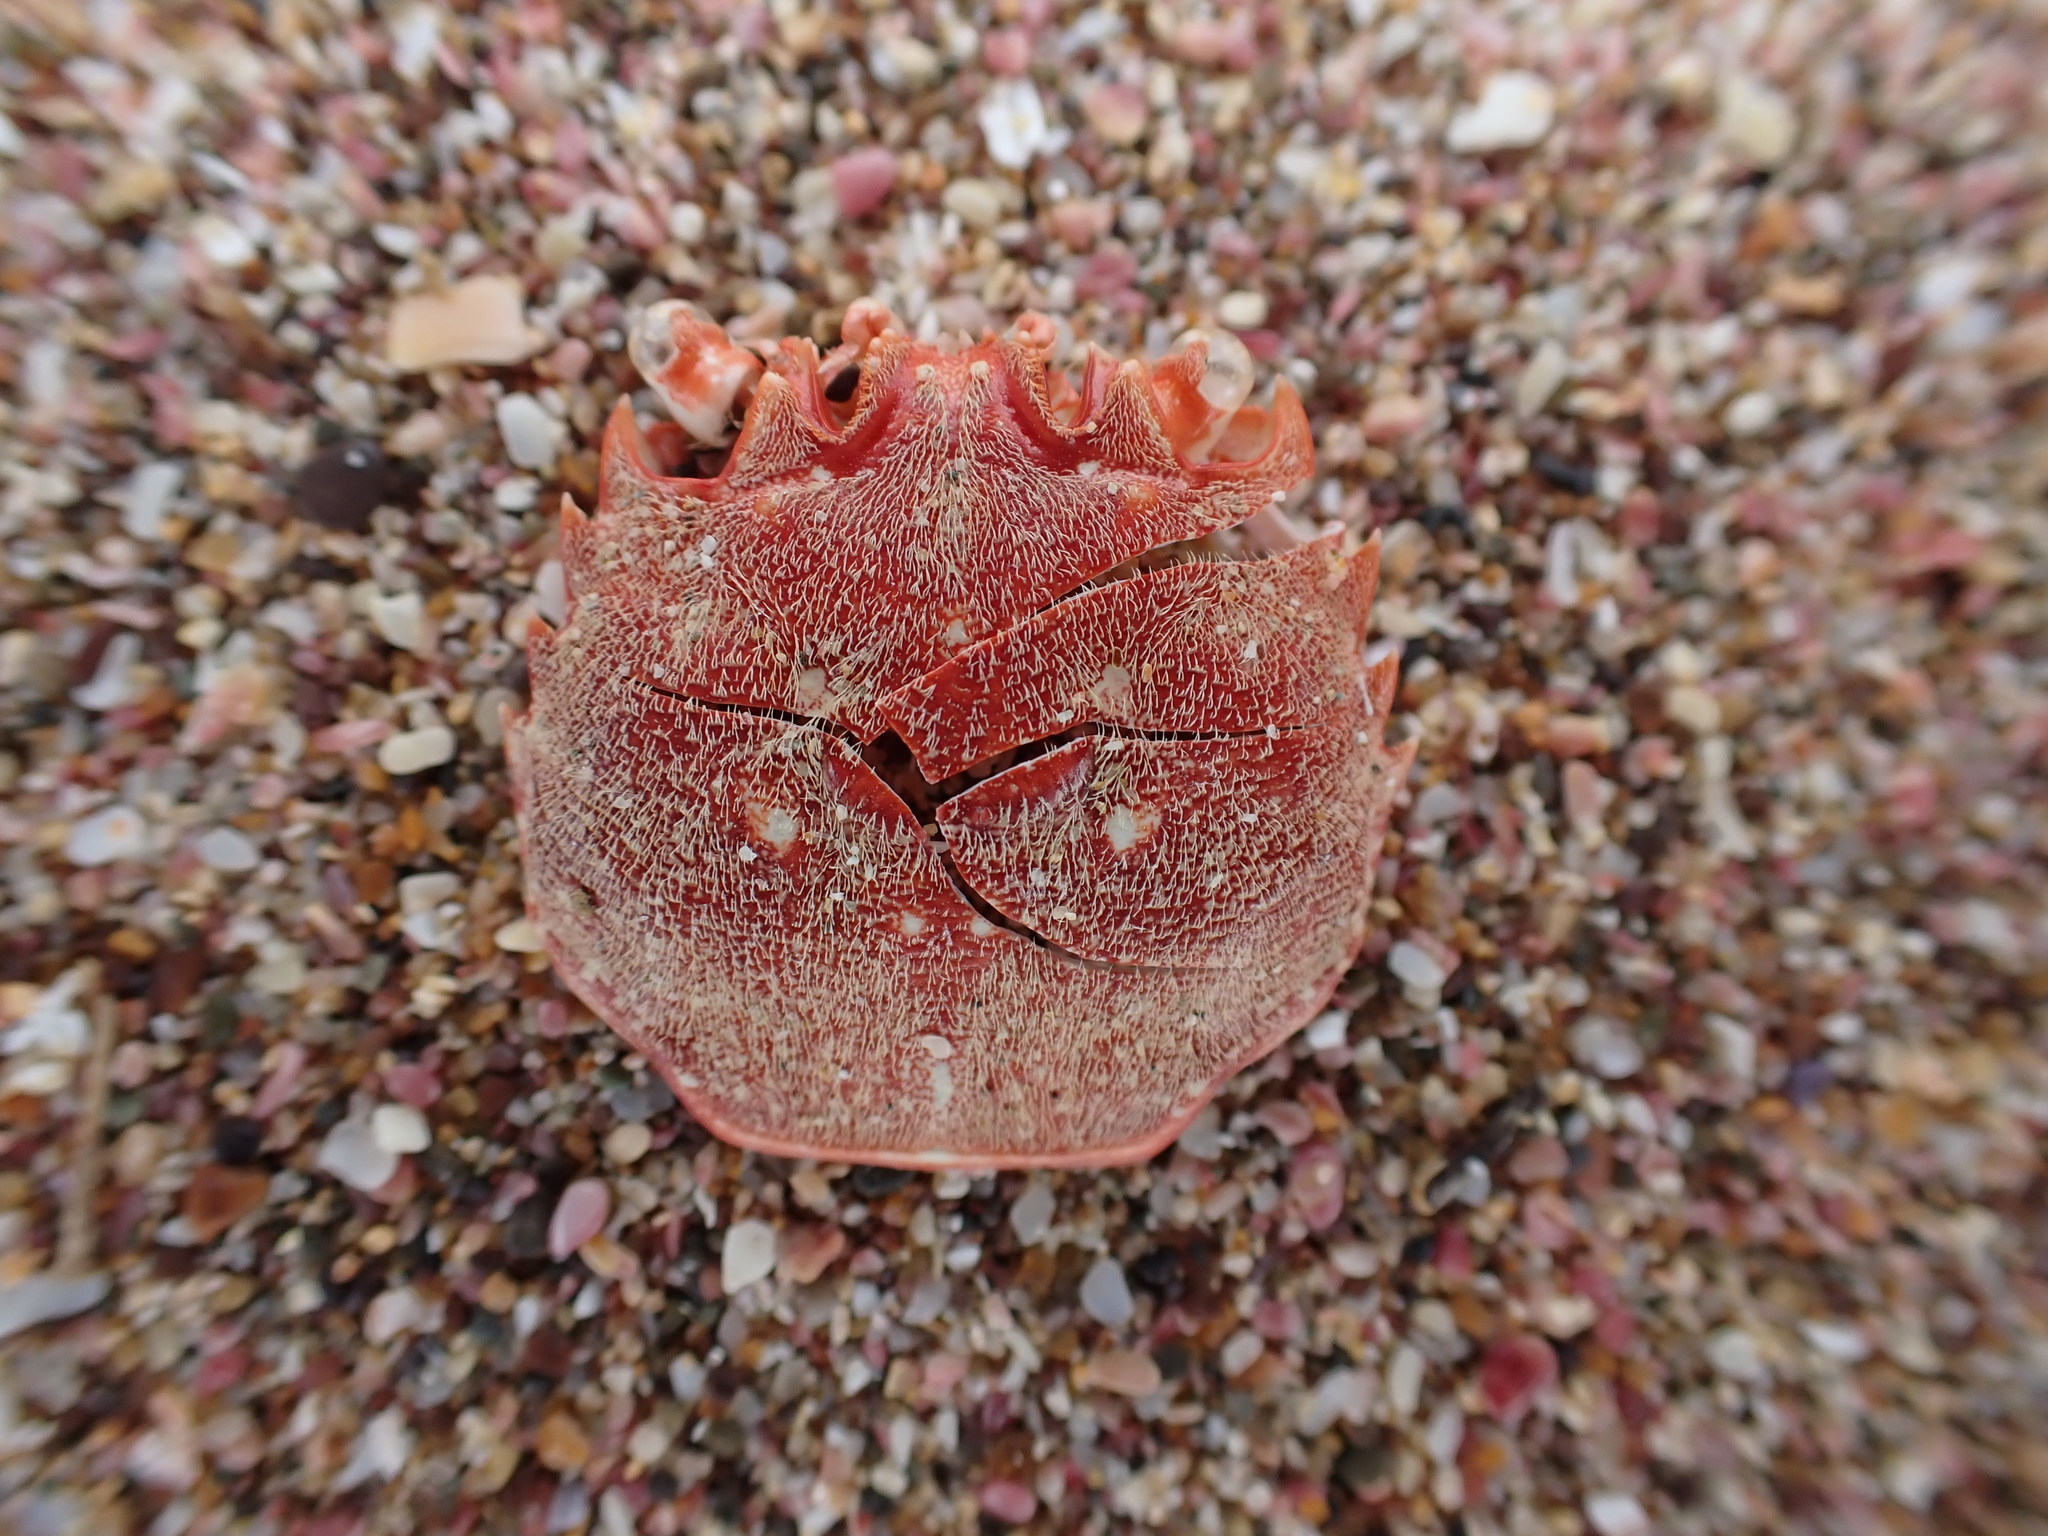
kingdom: Animalia
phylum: Arthropoda
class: Malacostraca
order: Decapoda
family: Plagusiidae
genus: Guinusia
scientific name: Guinusia chabrus
